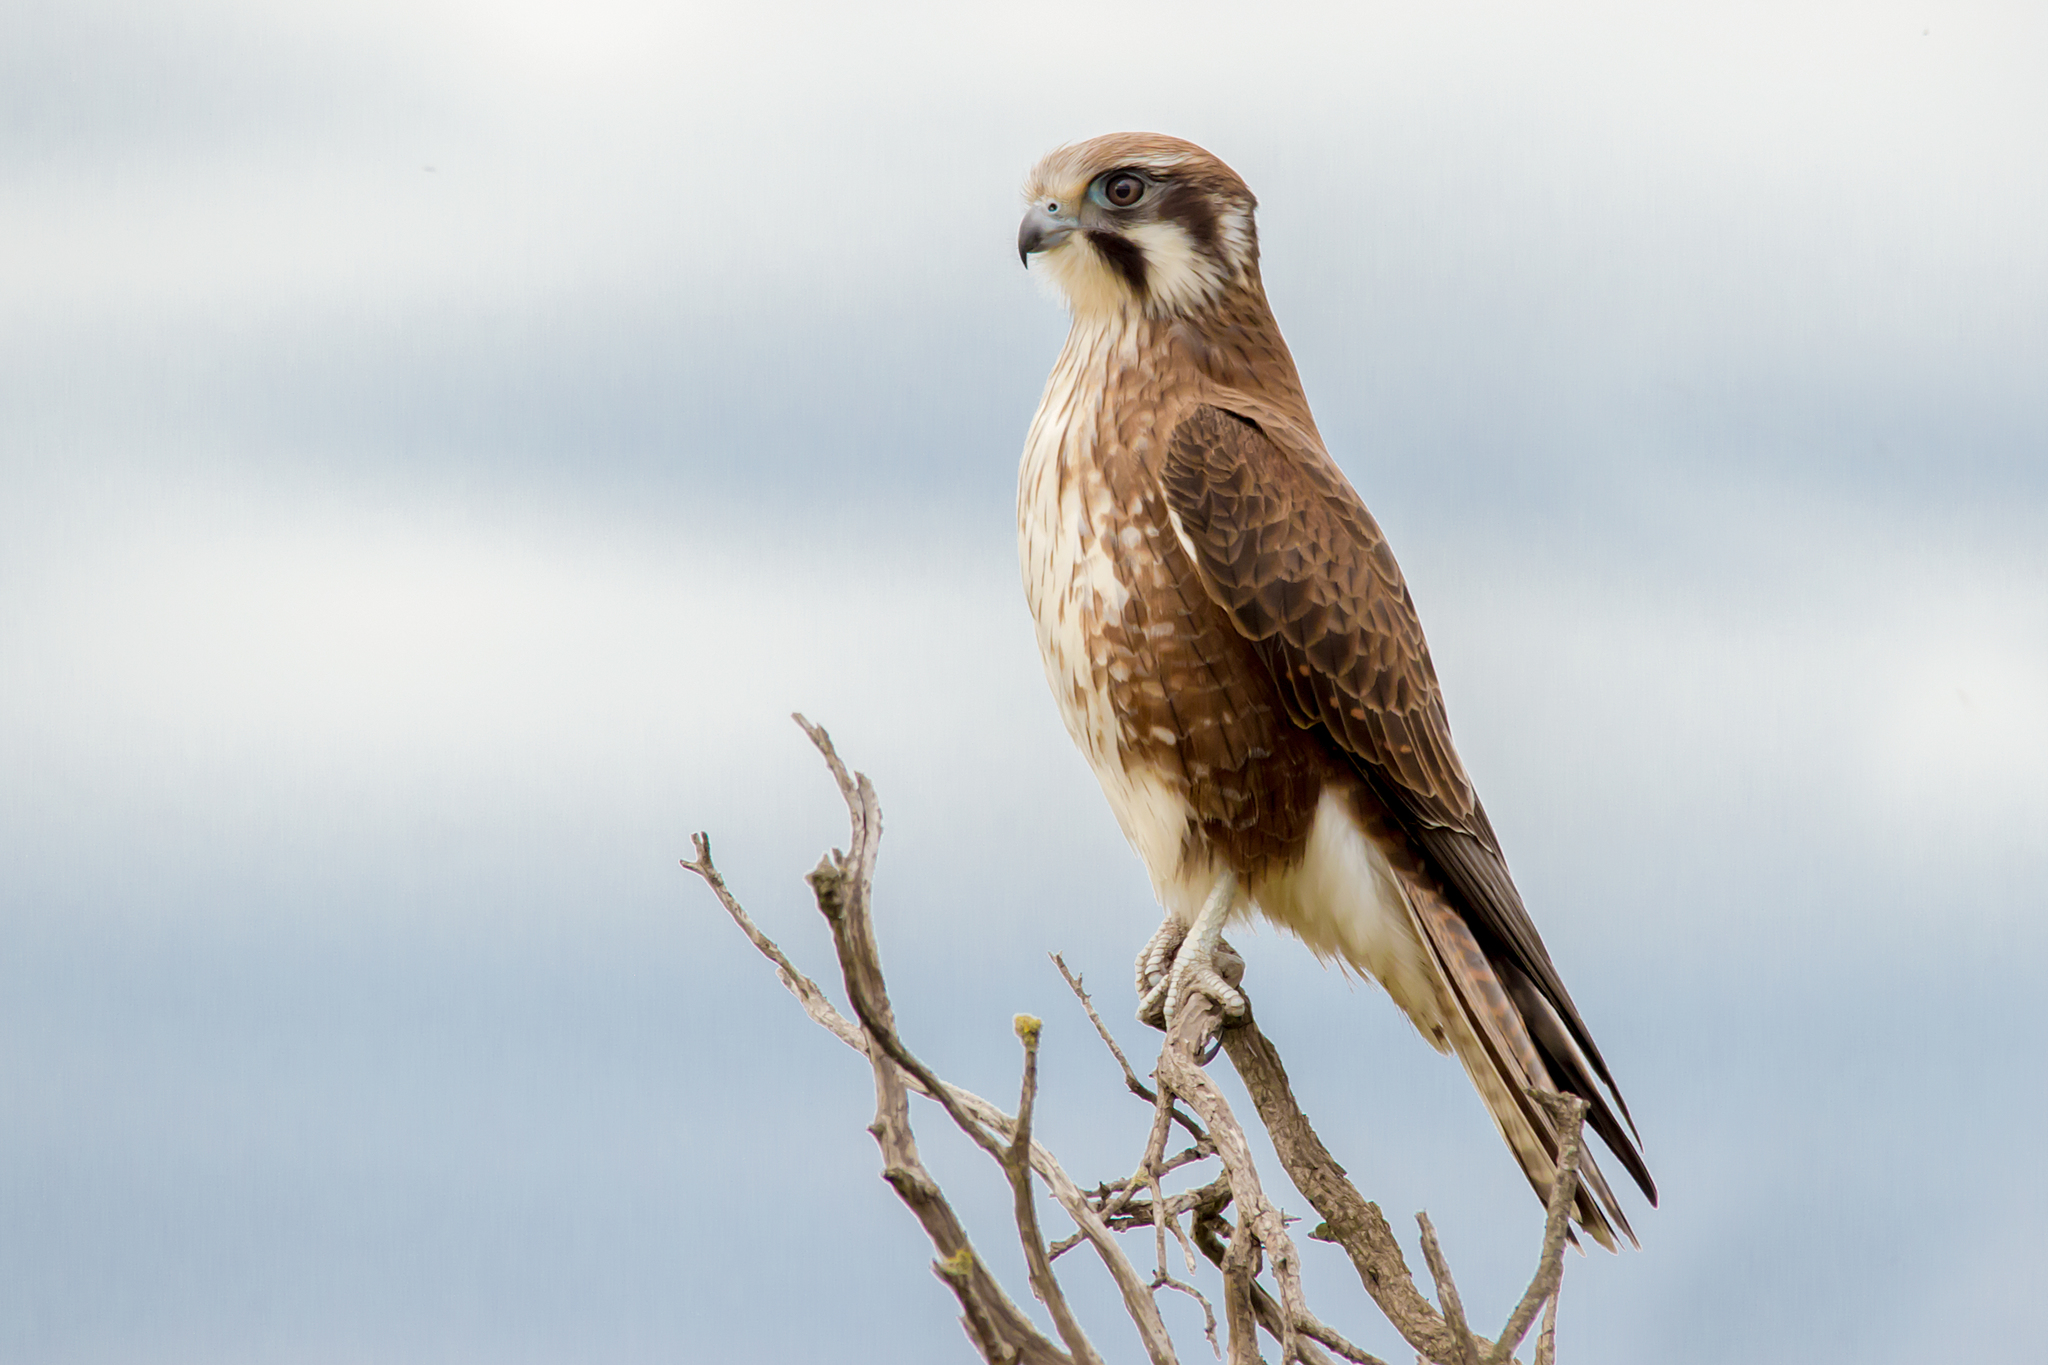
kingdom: Animalia
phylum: Chordata
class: Aves
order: Falconiformes
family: Falconidae
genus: Falco
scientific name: Falco berigora
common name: Brown falcon
